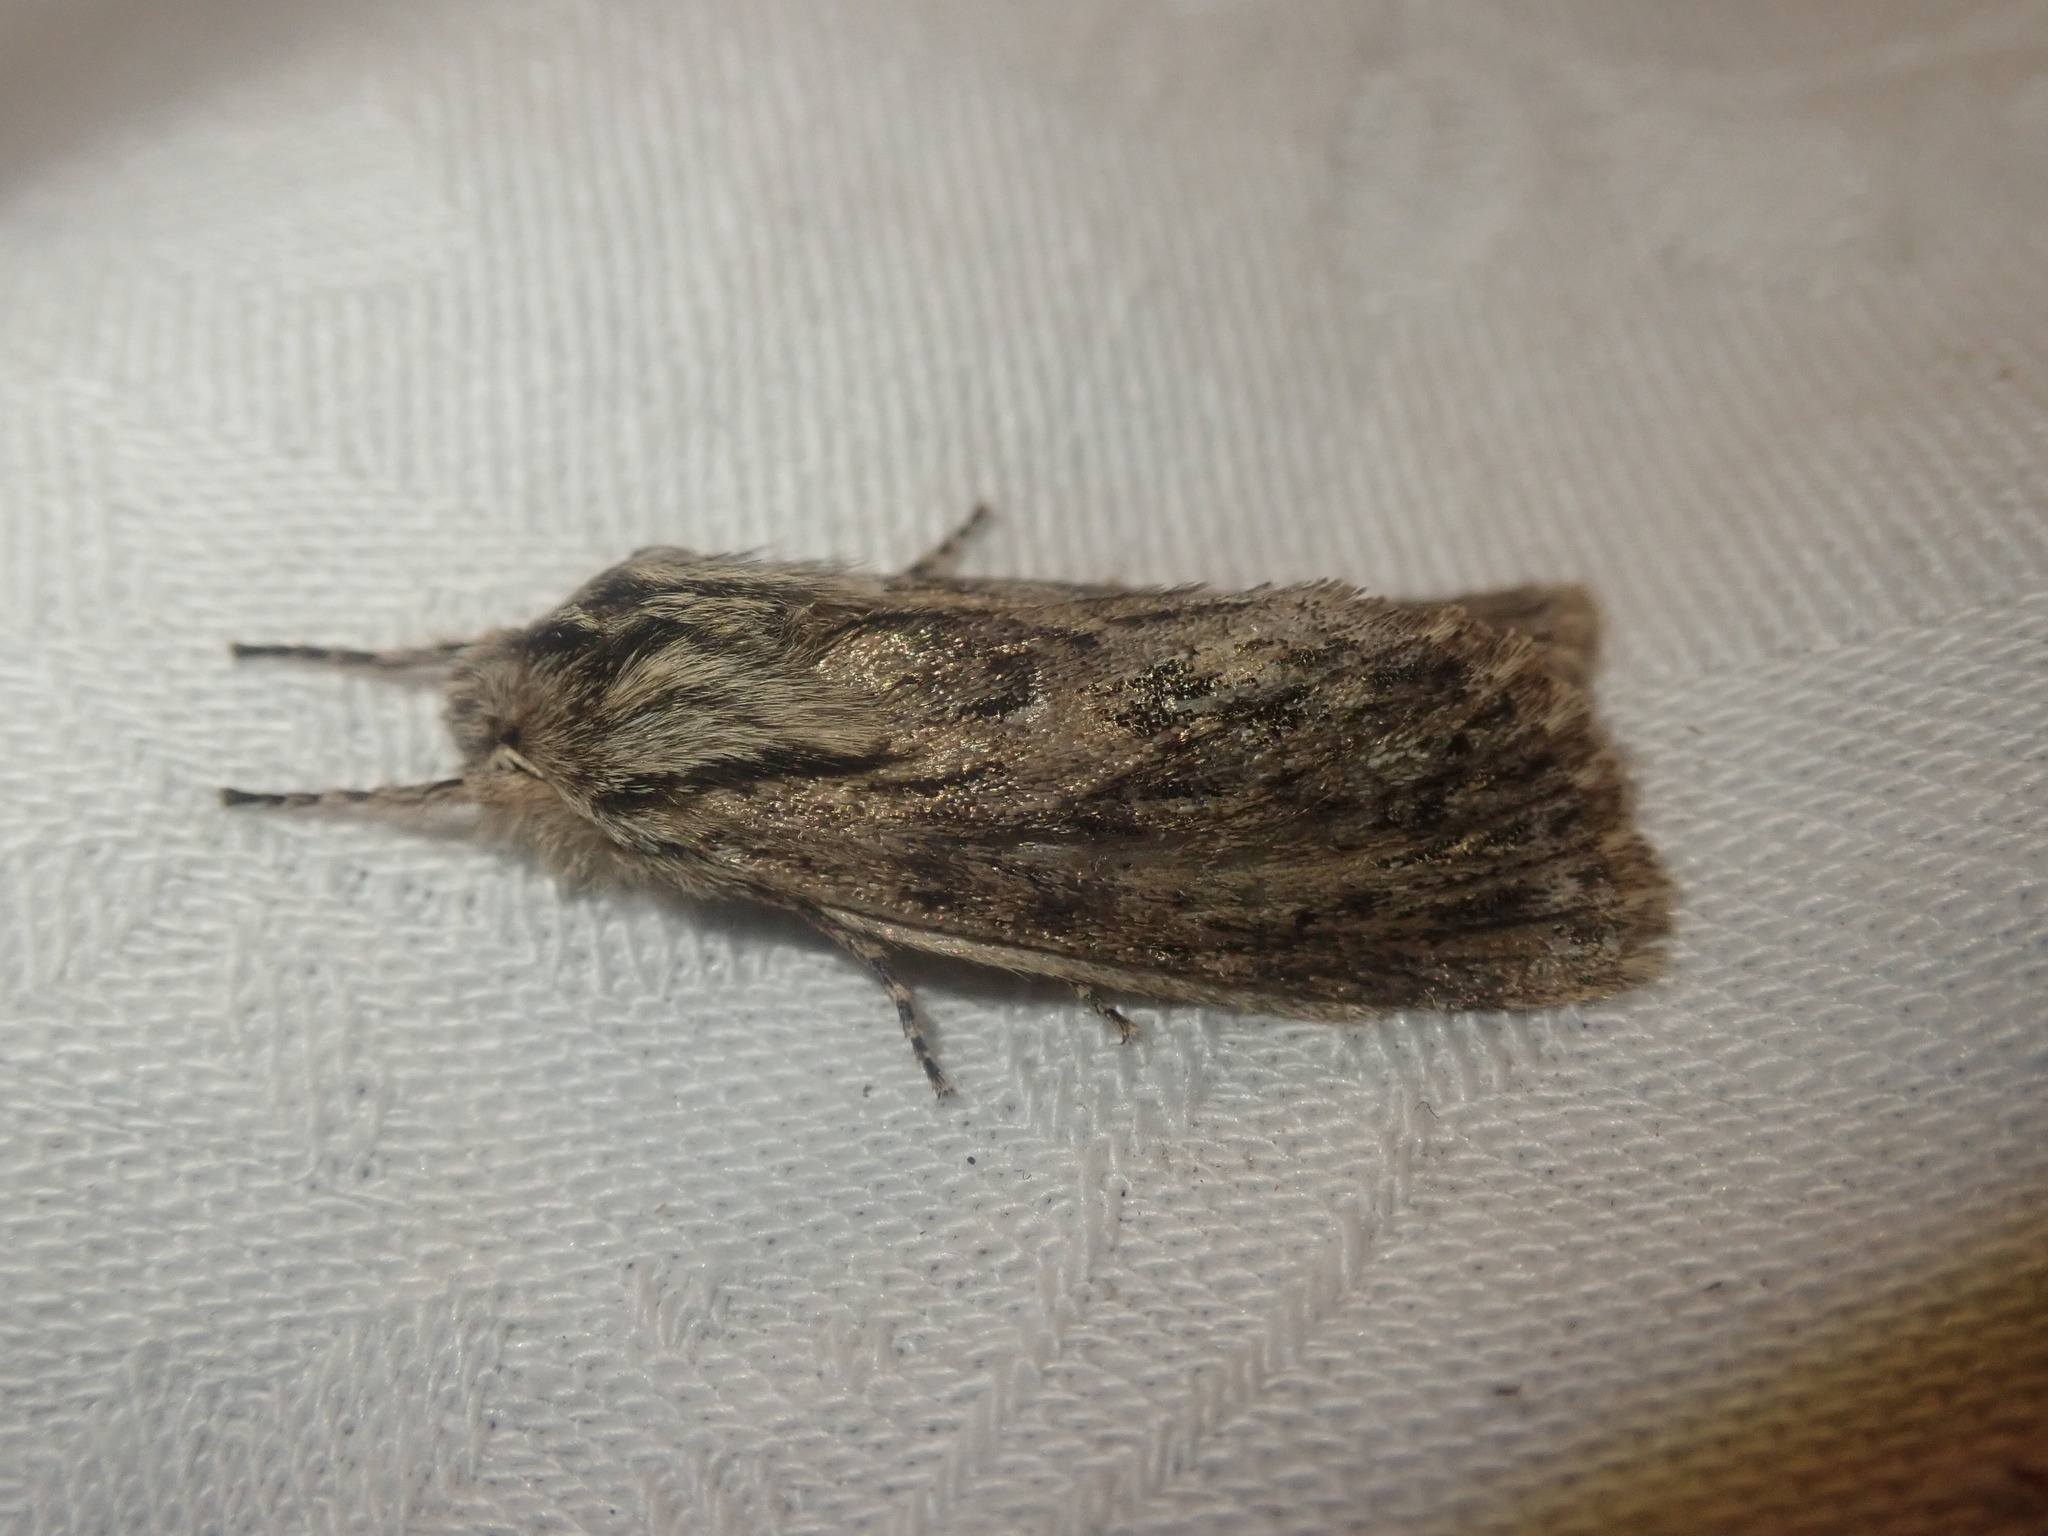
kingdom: Animalia
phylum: Arthropoda
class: Insecta
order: Lepidoptera
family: Noctuidae
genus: Asteroscopus
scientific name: Asteroscopus sphinx
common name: The sprawler
